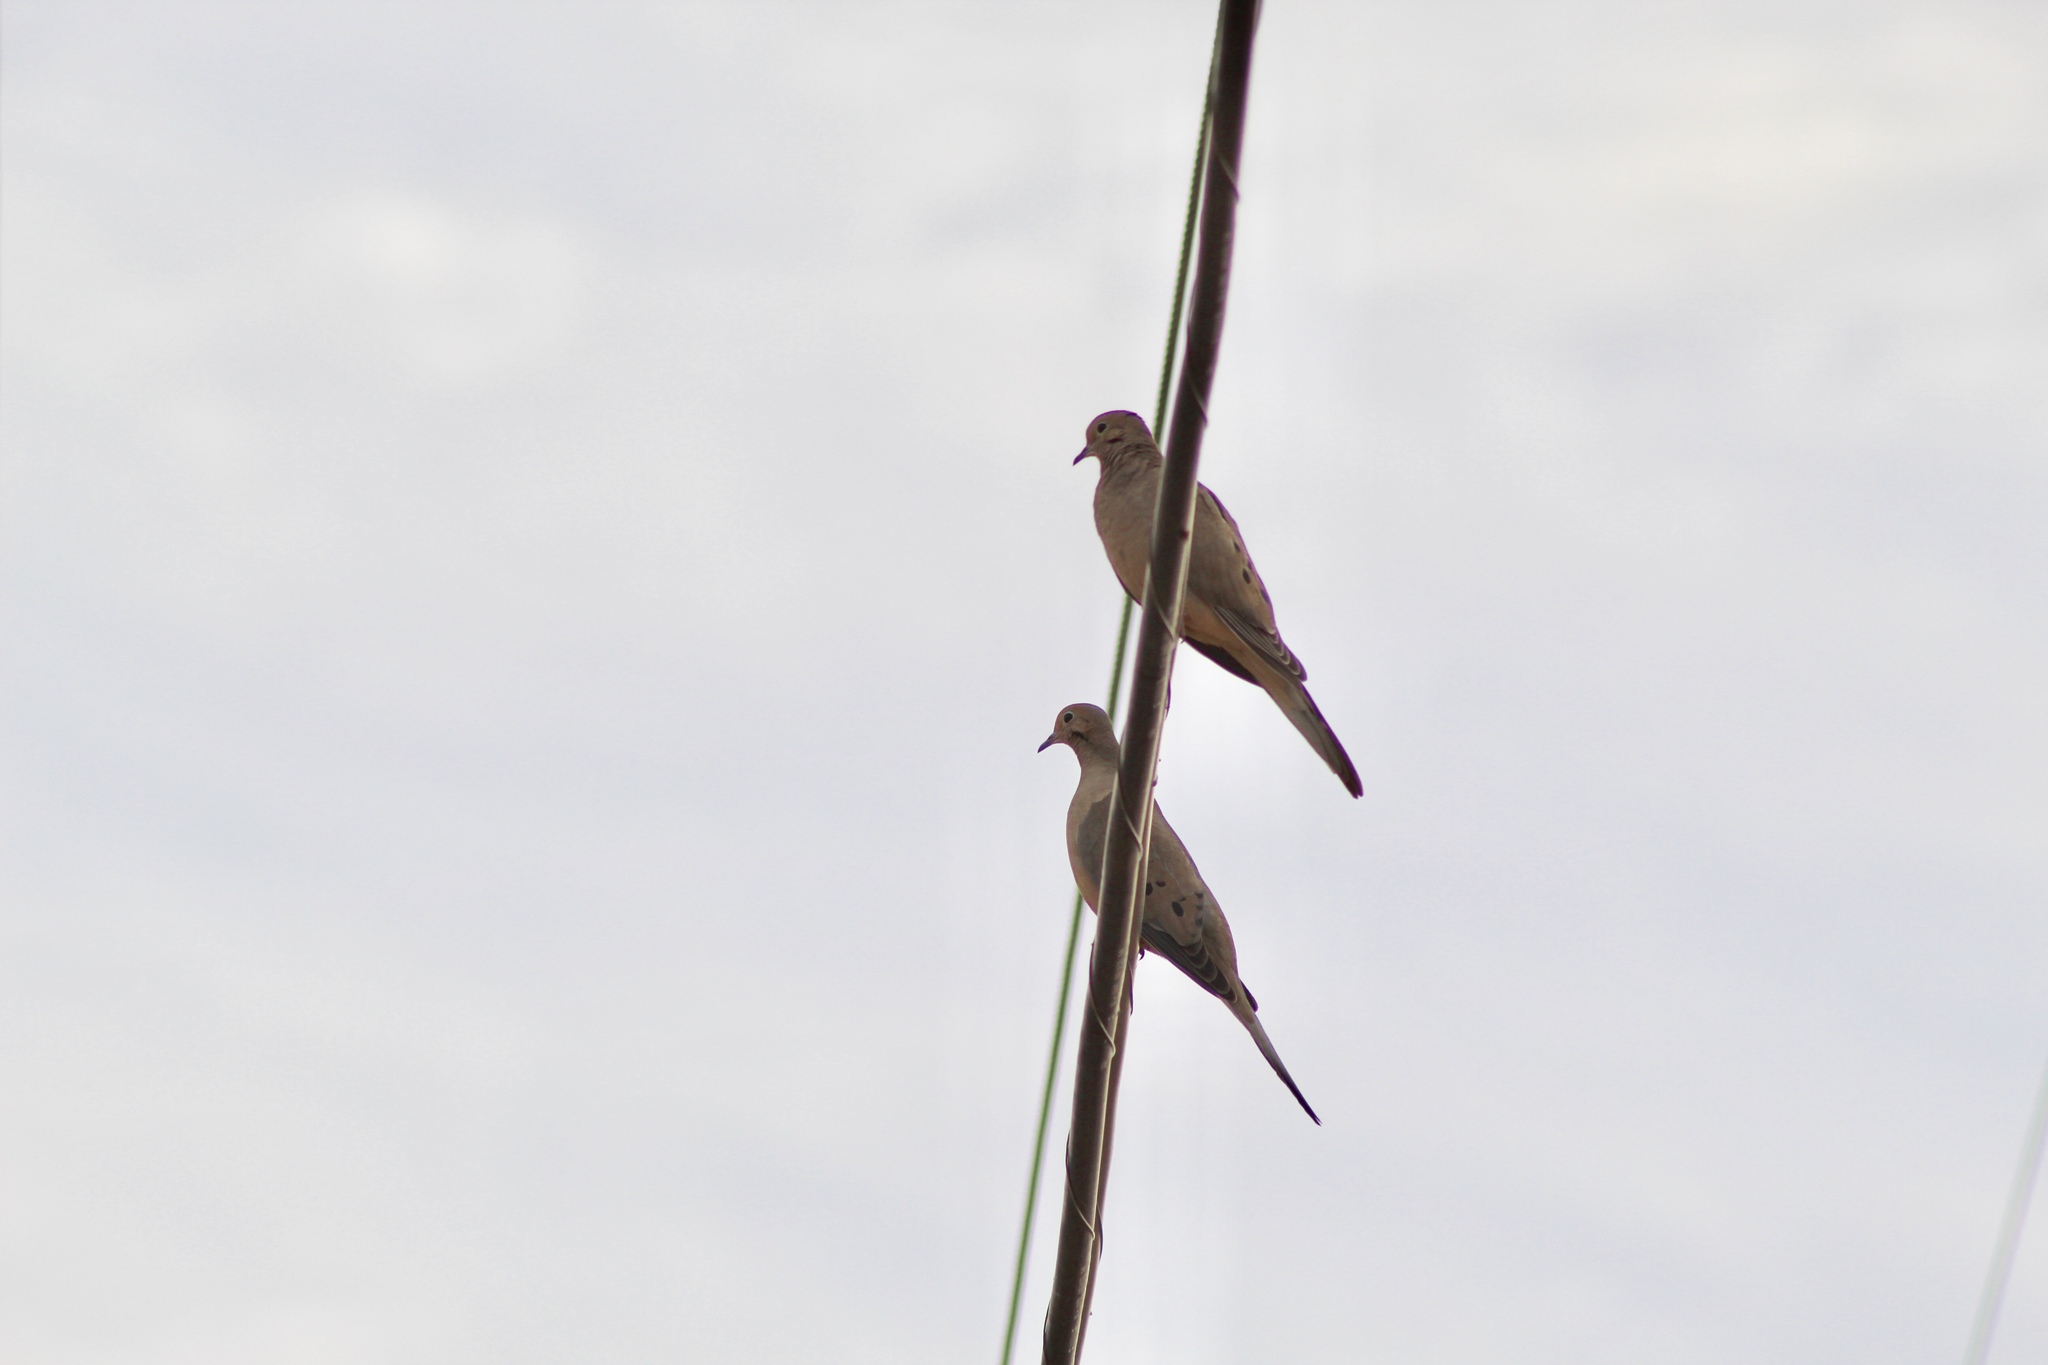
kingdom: Animalia
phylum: Chordata
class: Aves
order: Columbiformes
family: Columbidae
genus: Zenaida
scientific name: Zenaida macroura
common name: Mourning dove
